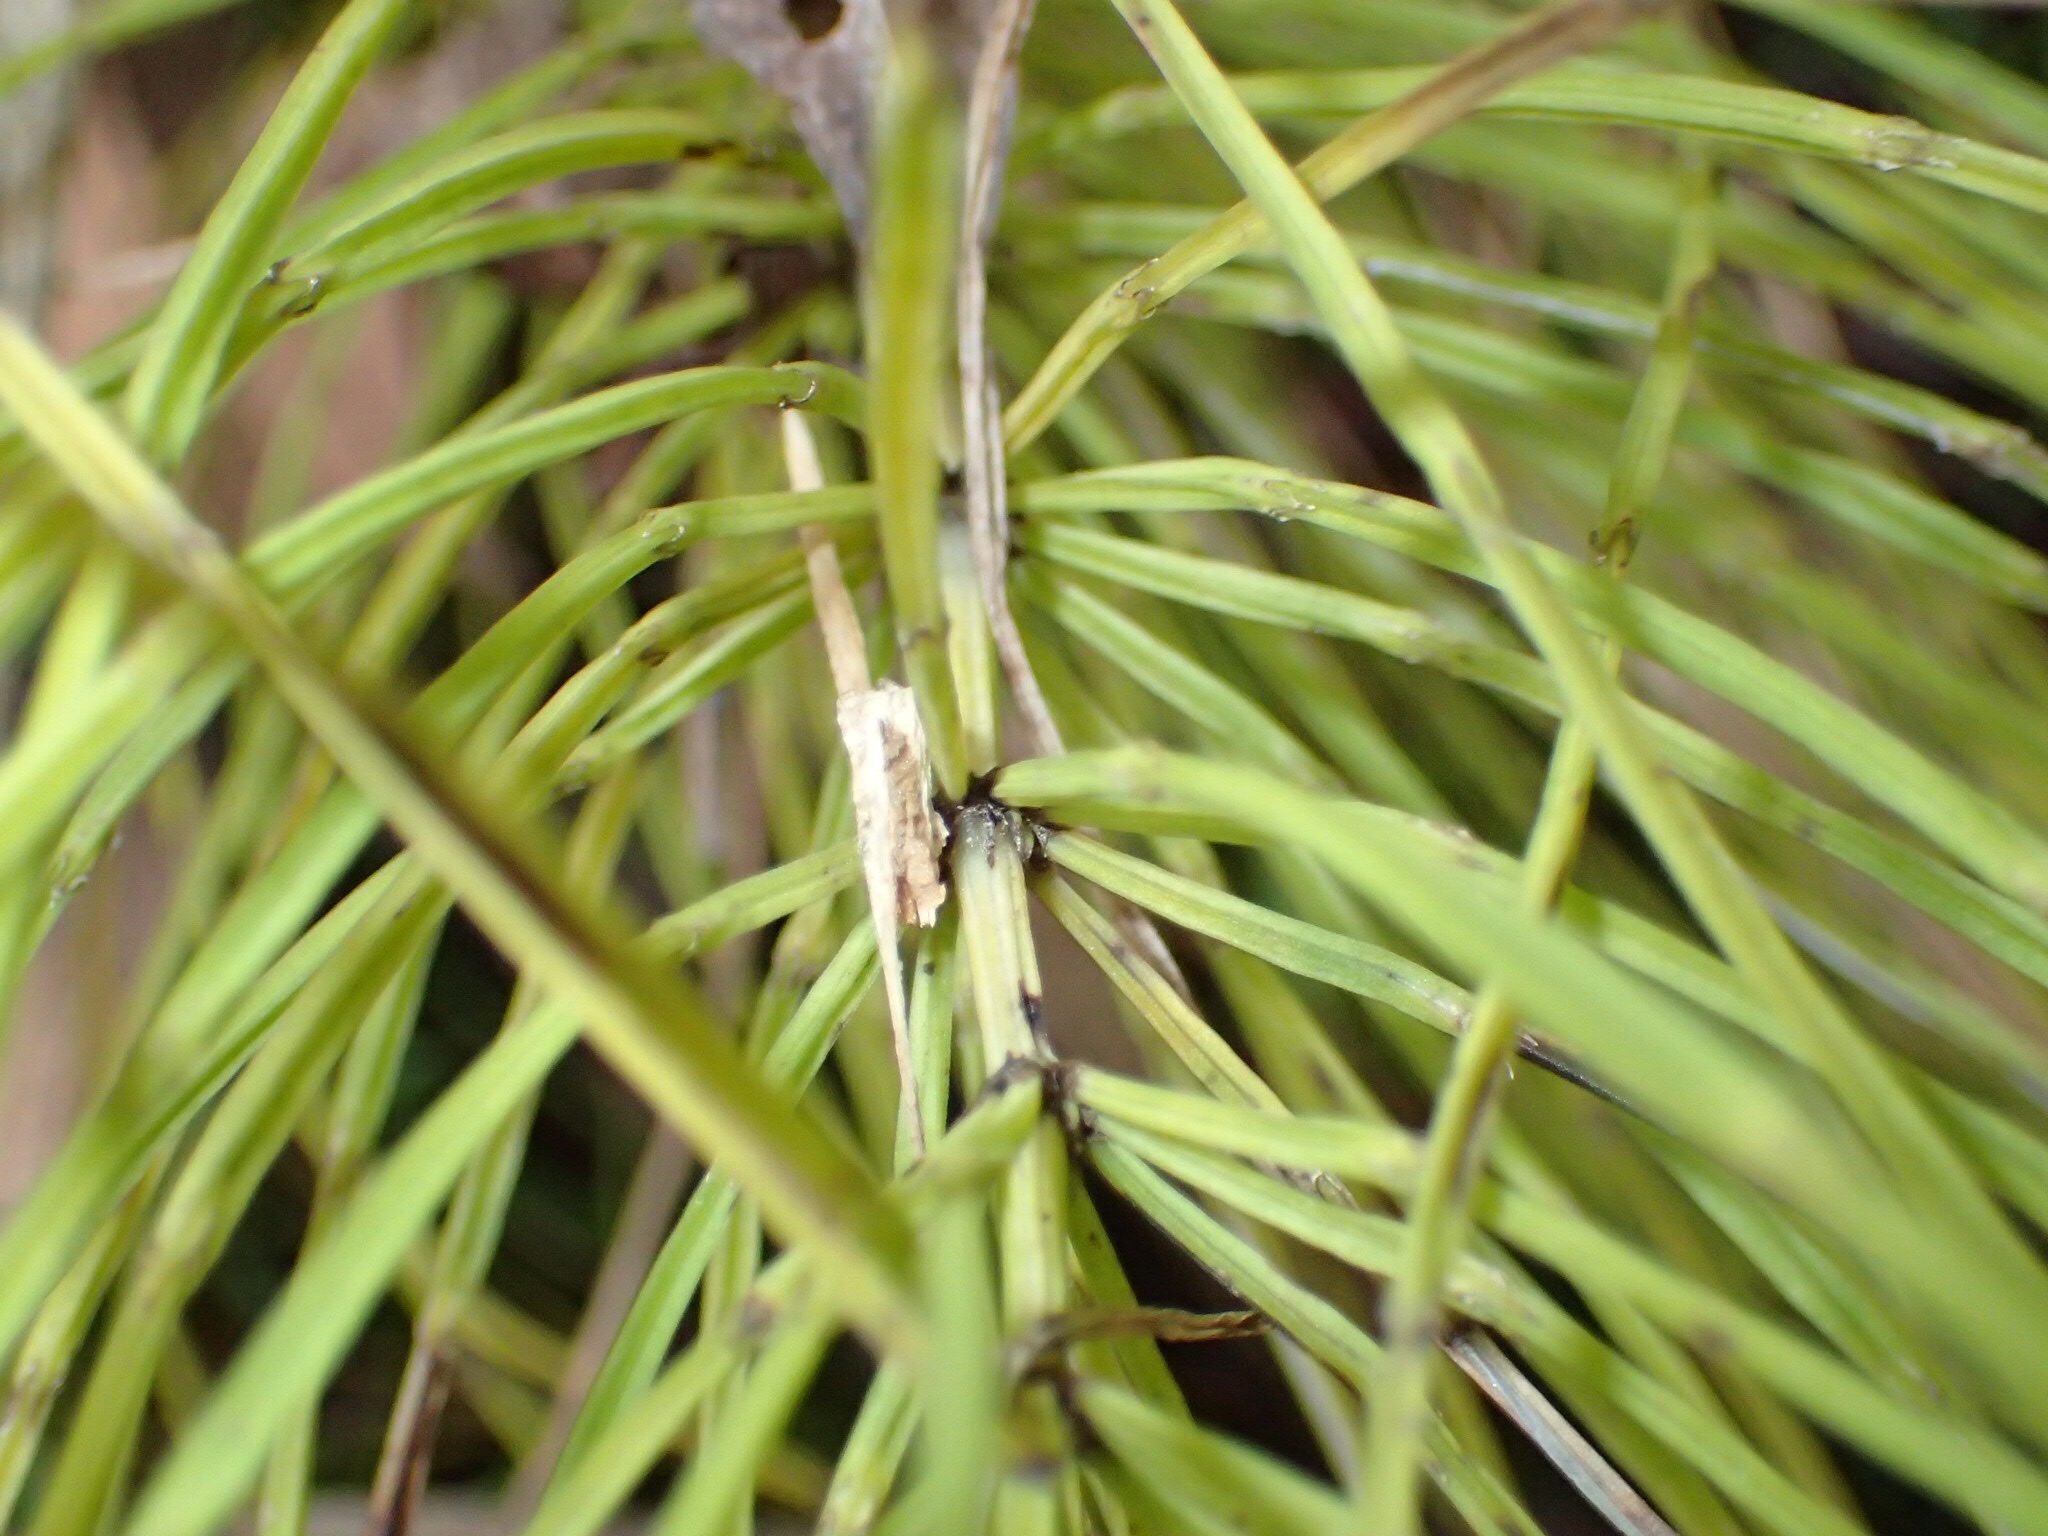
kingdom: Plantae
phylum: Tracheophyta
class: Polypodiopsida
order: Equisetales
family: Equisetaceae
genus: Equisetum
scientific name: Equisetum arvense
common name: Field horsetail
